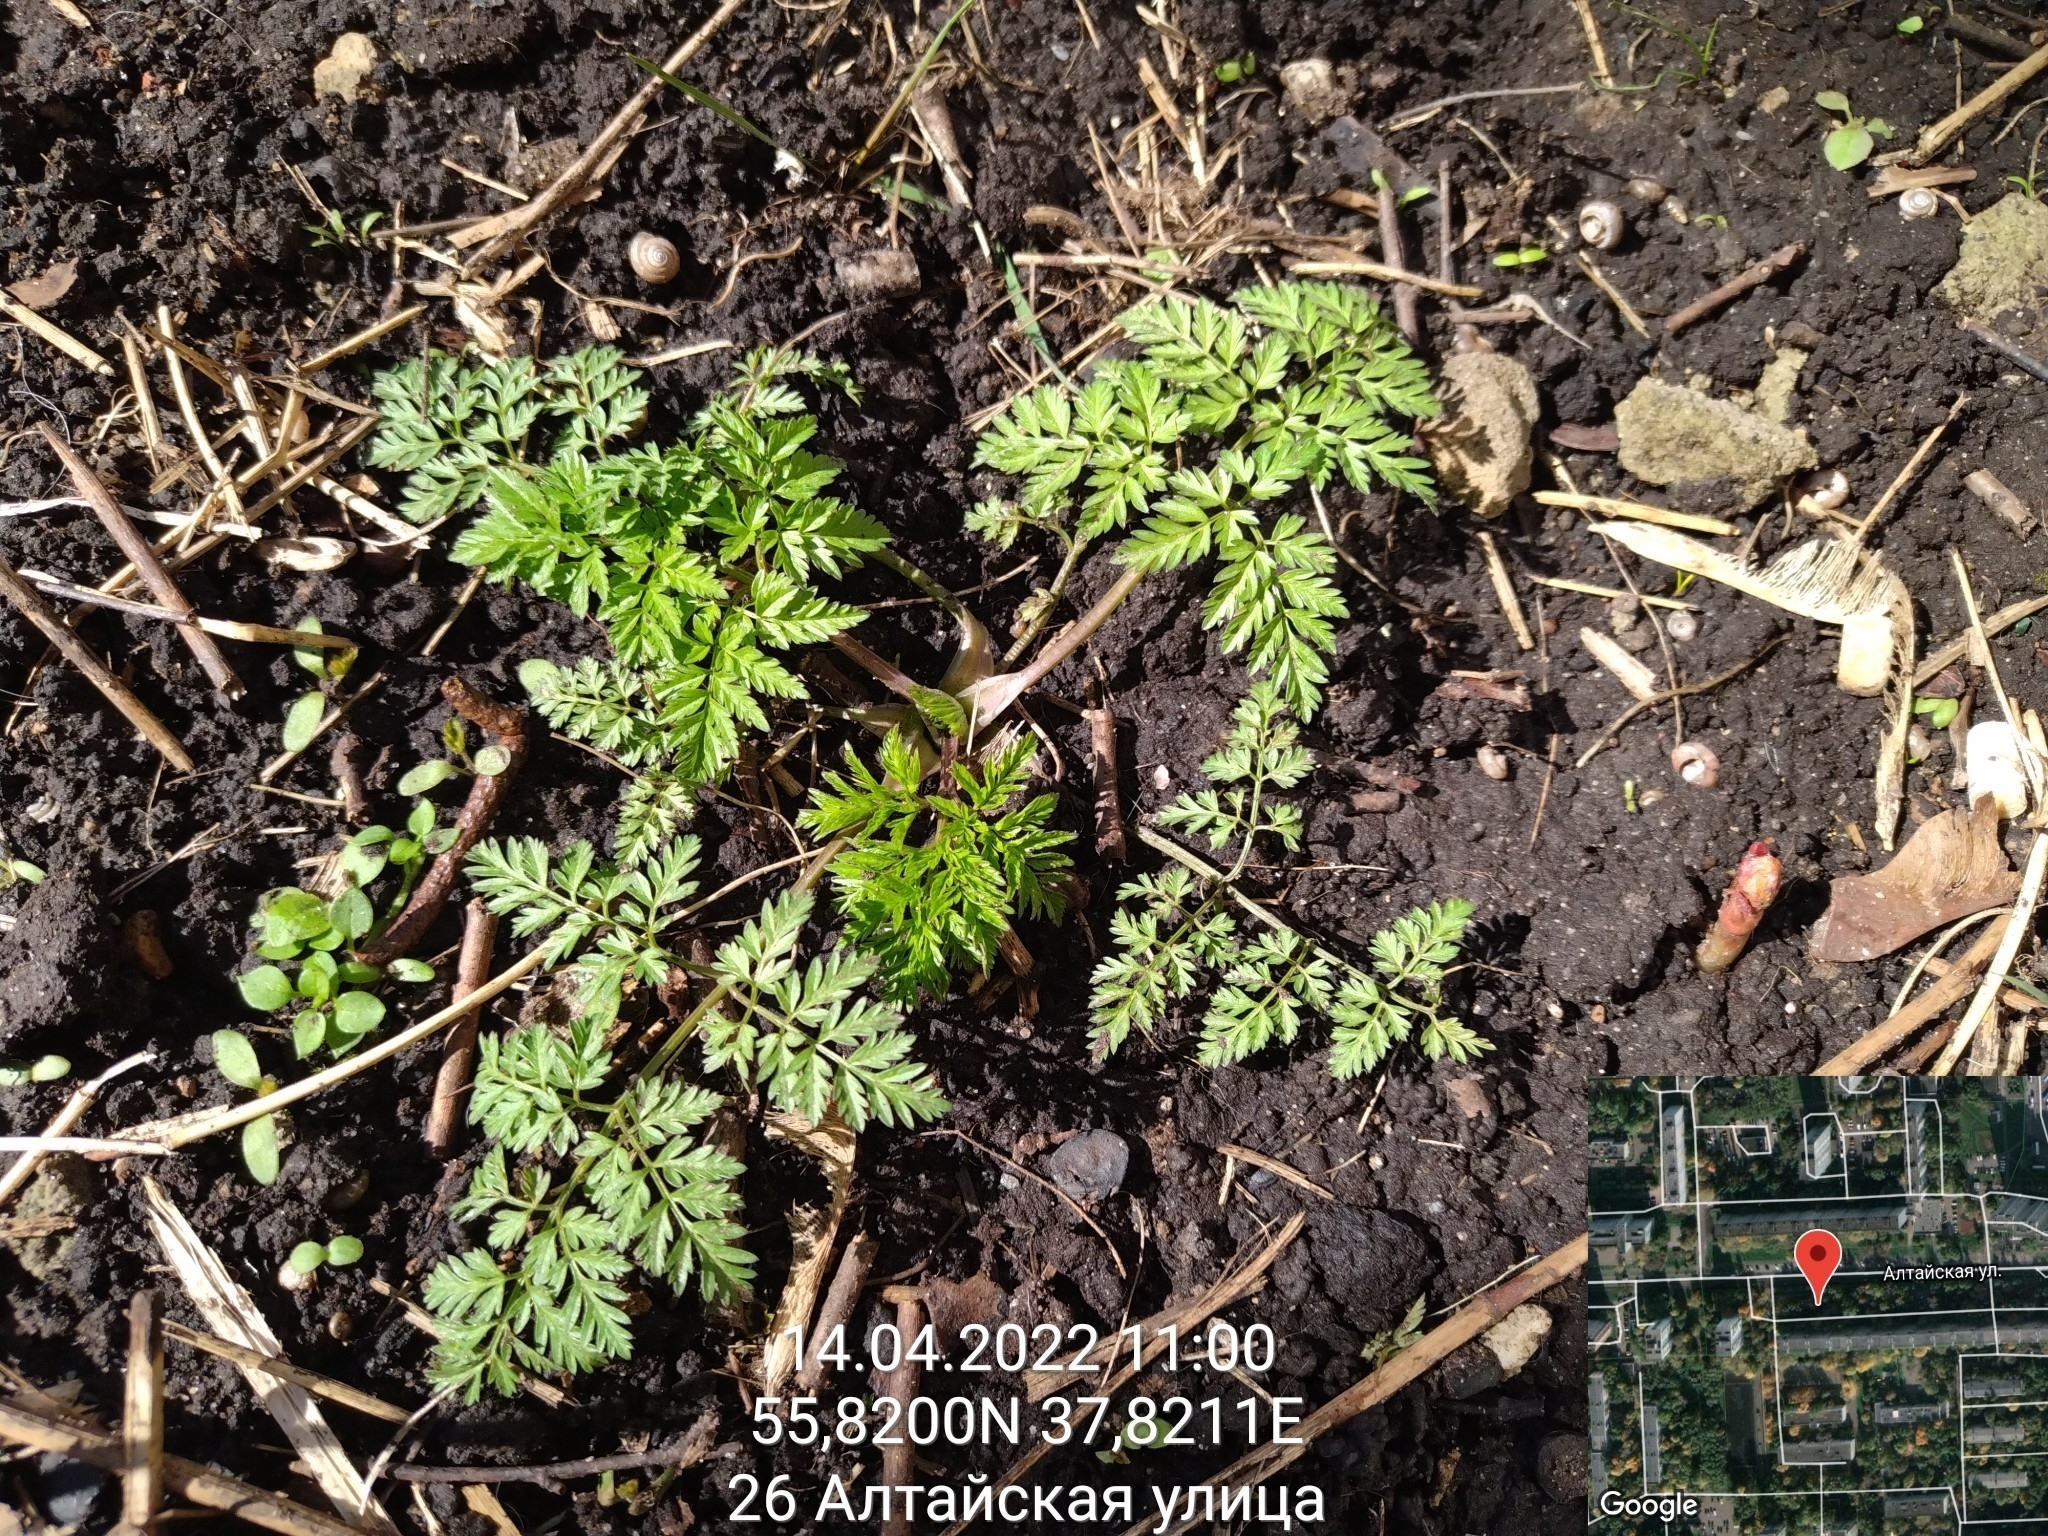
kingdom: Plantae
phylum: Tracheophyta
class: Magnoliopsida
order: Apiales
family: Apiaceae
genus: Anthriscus
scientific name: Anthriscus sylvestris
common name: Cow parsley
